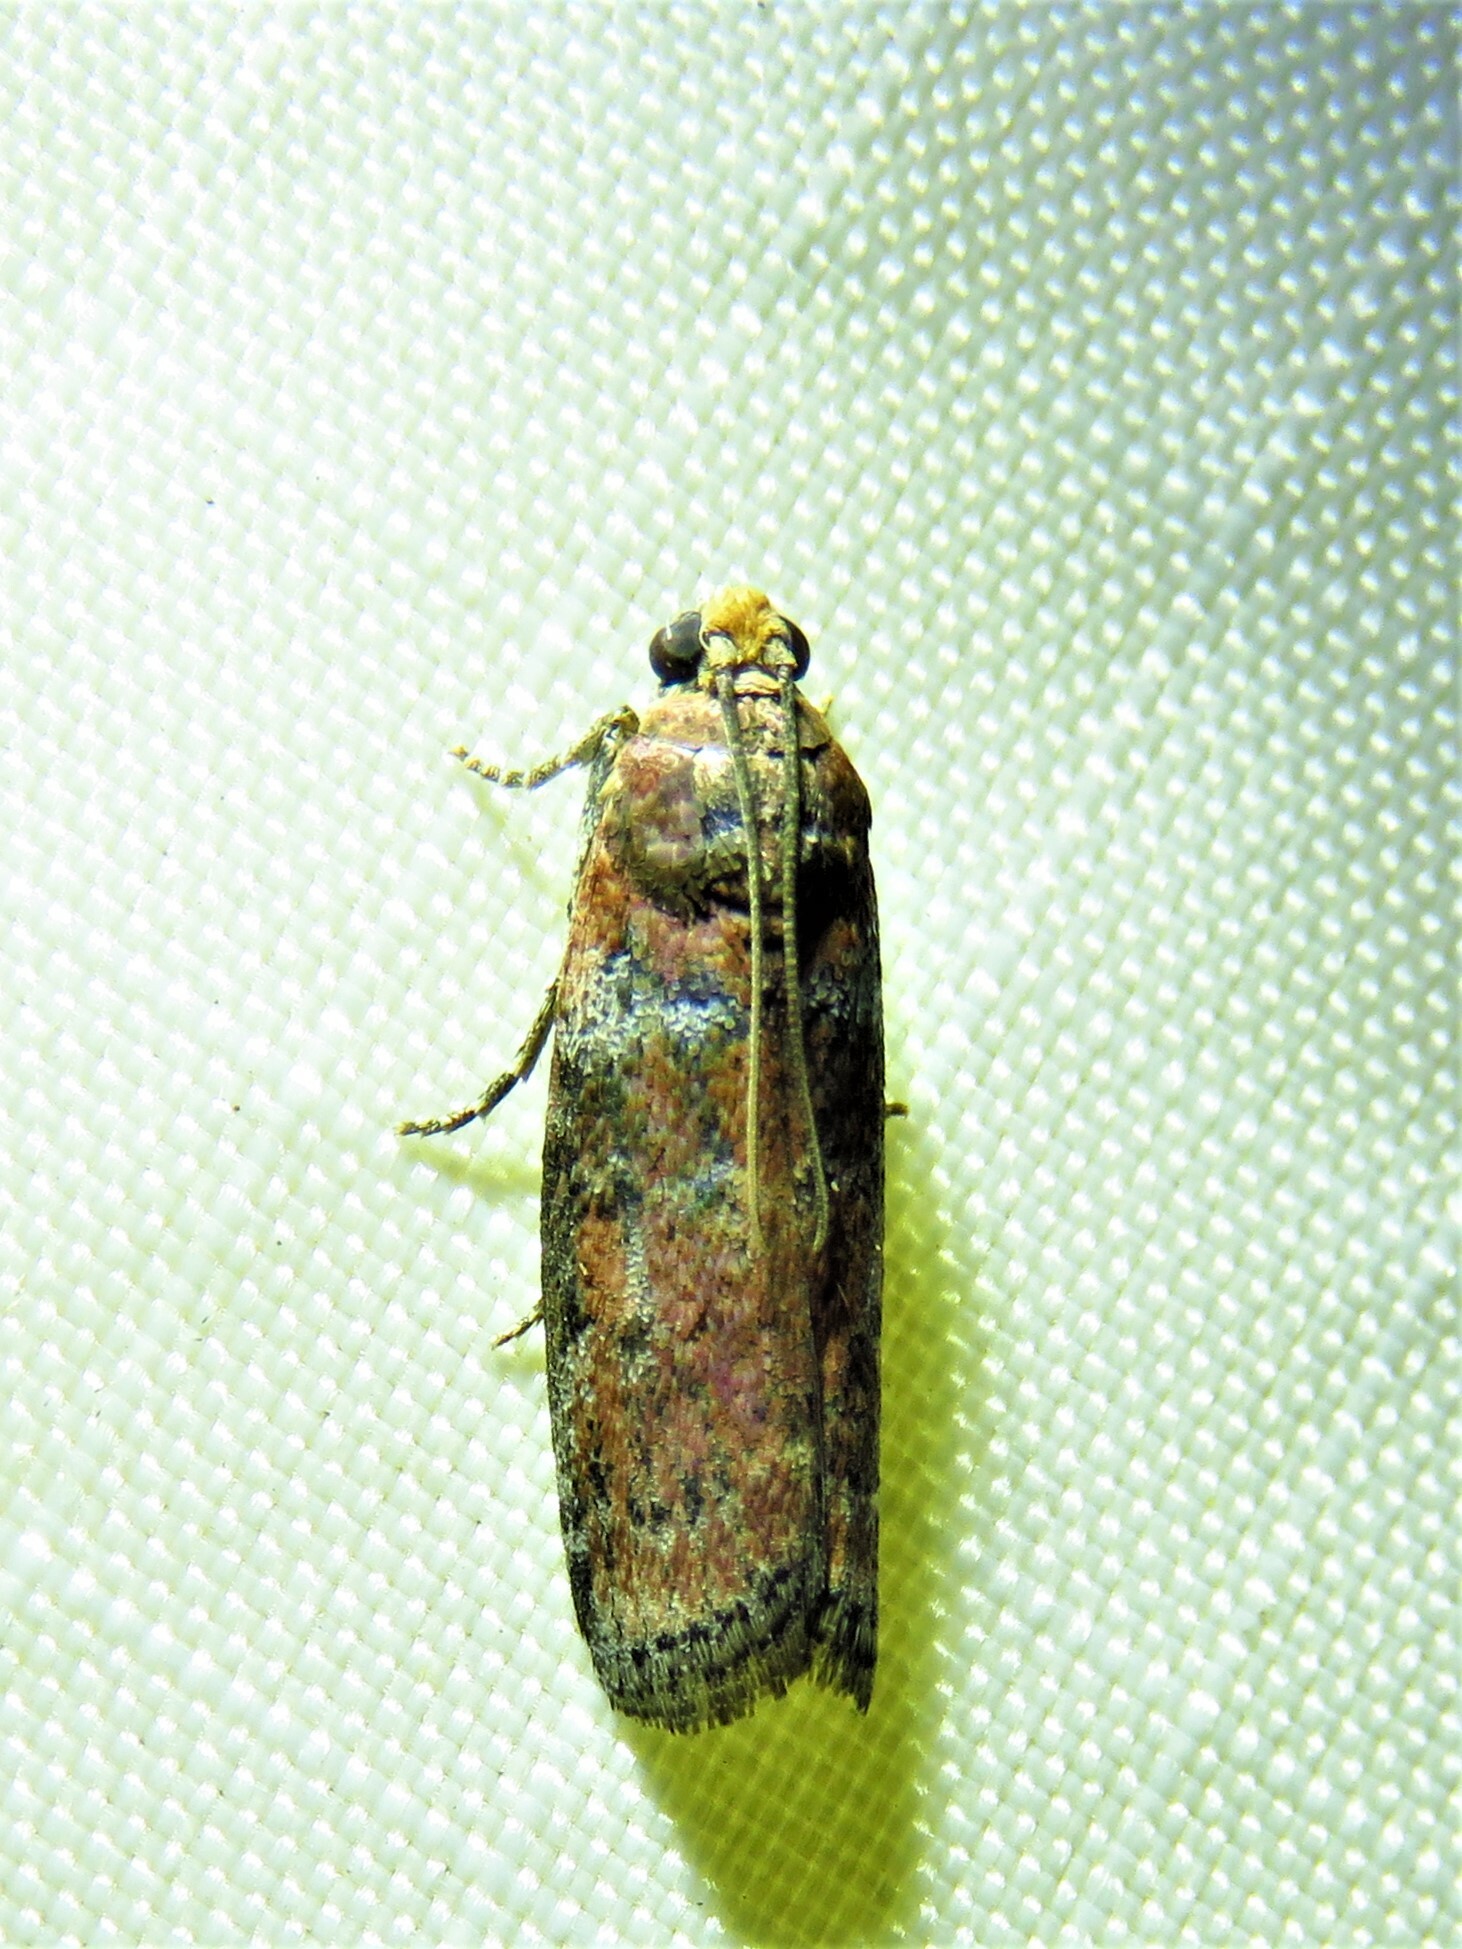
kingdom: Animalia
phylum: Arthropoda
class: Insecta
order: Lepidoptera
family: Pyralidae
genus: Sciota
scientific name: Sciota celtidella
